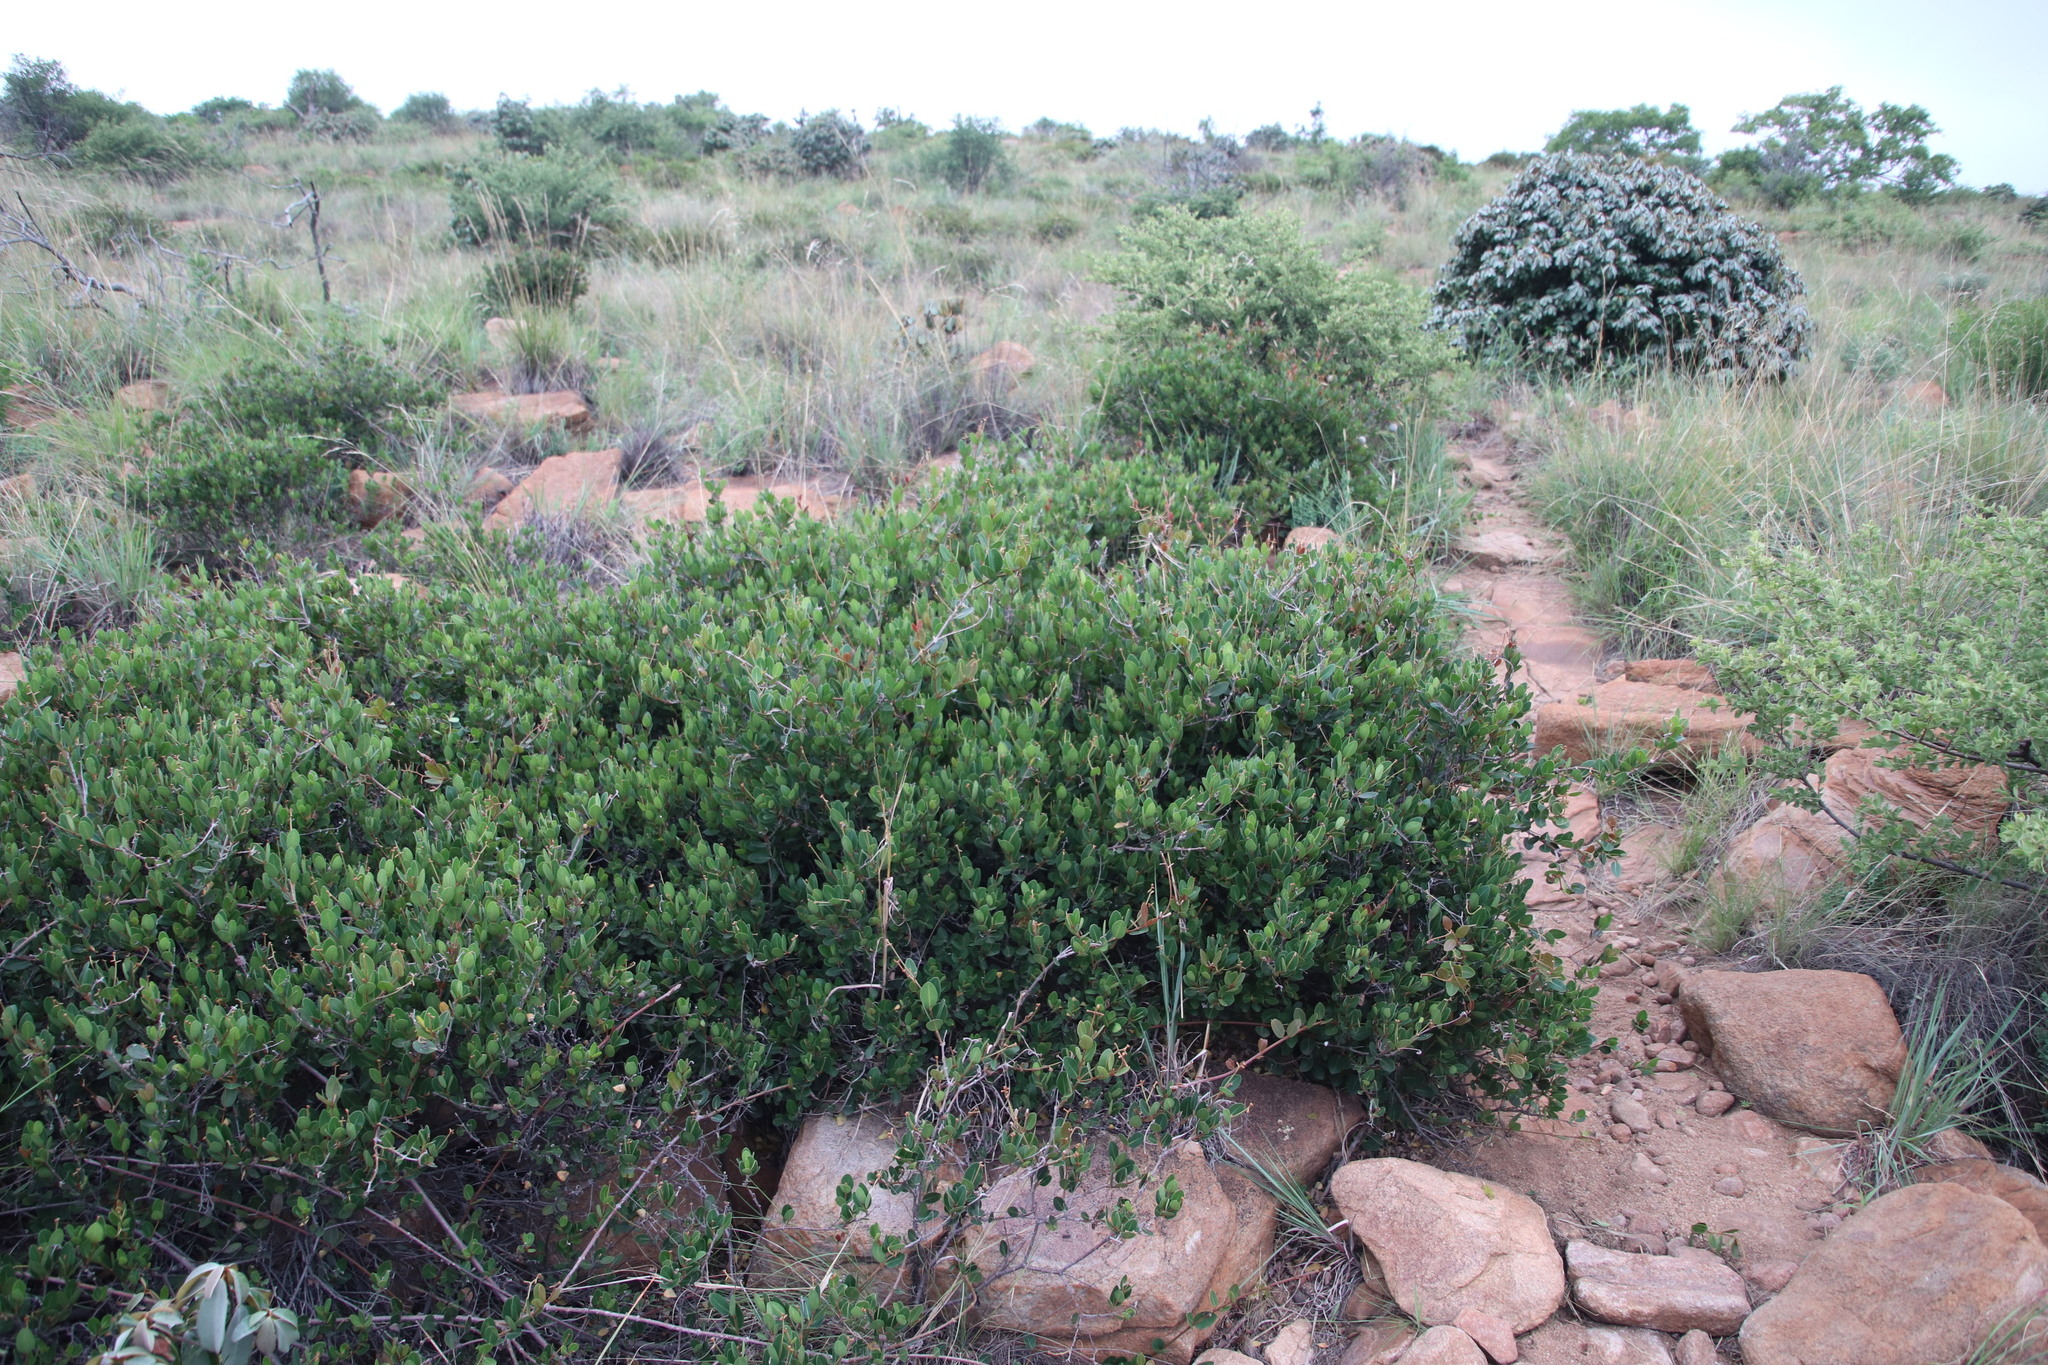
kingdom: Plantae
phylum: Tracheophyta
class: Magnoliopsida
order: Gentianales
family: Apocynaceae
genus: Ancylobothrys
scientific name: Ancylobothrys capensis
